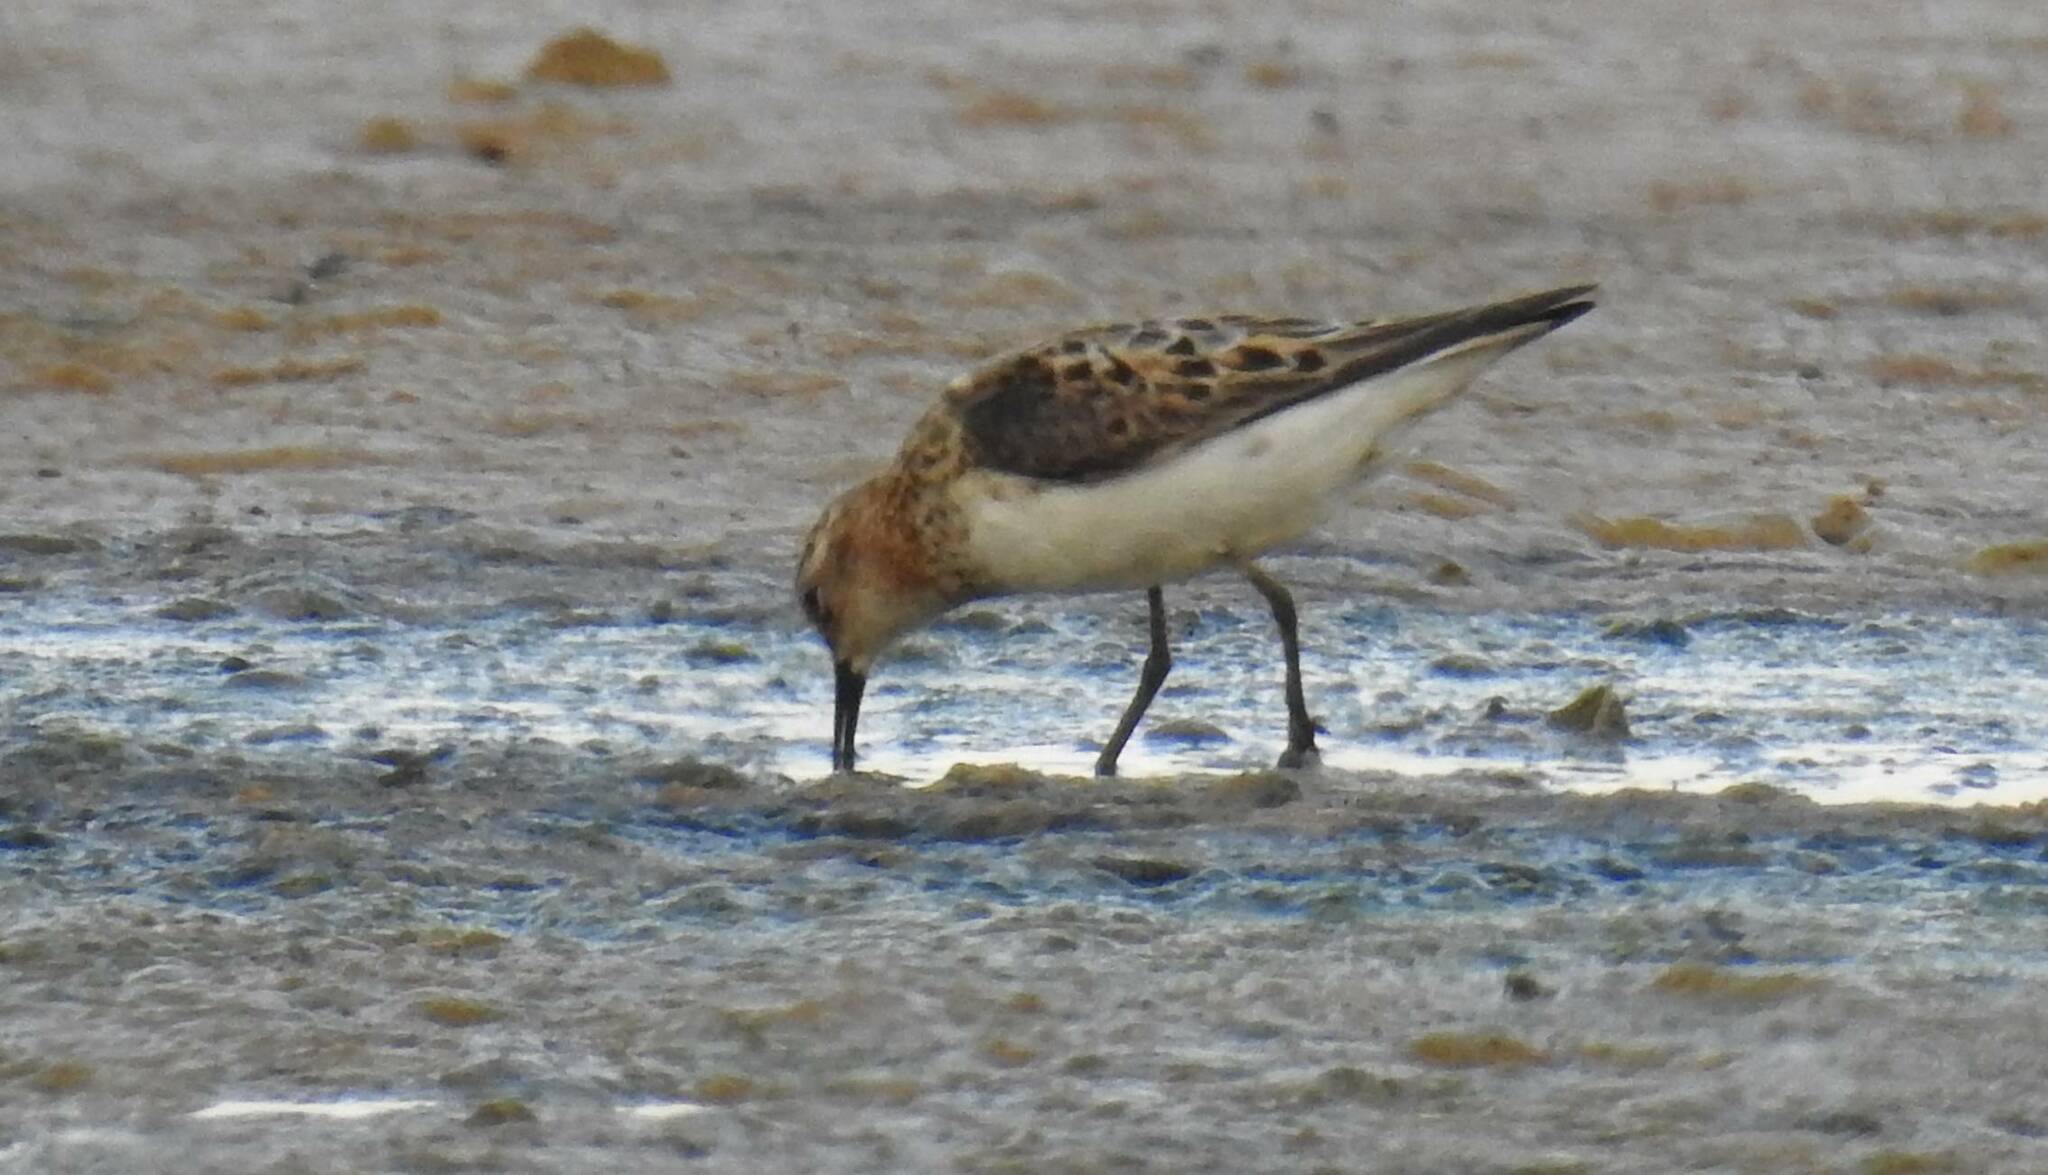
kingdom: Animalia
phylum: Chordata
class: Aves
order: Charadriiformes
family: Scolopacidae
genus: Calidris
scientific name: Calidris minuta
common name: Little stint
